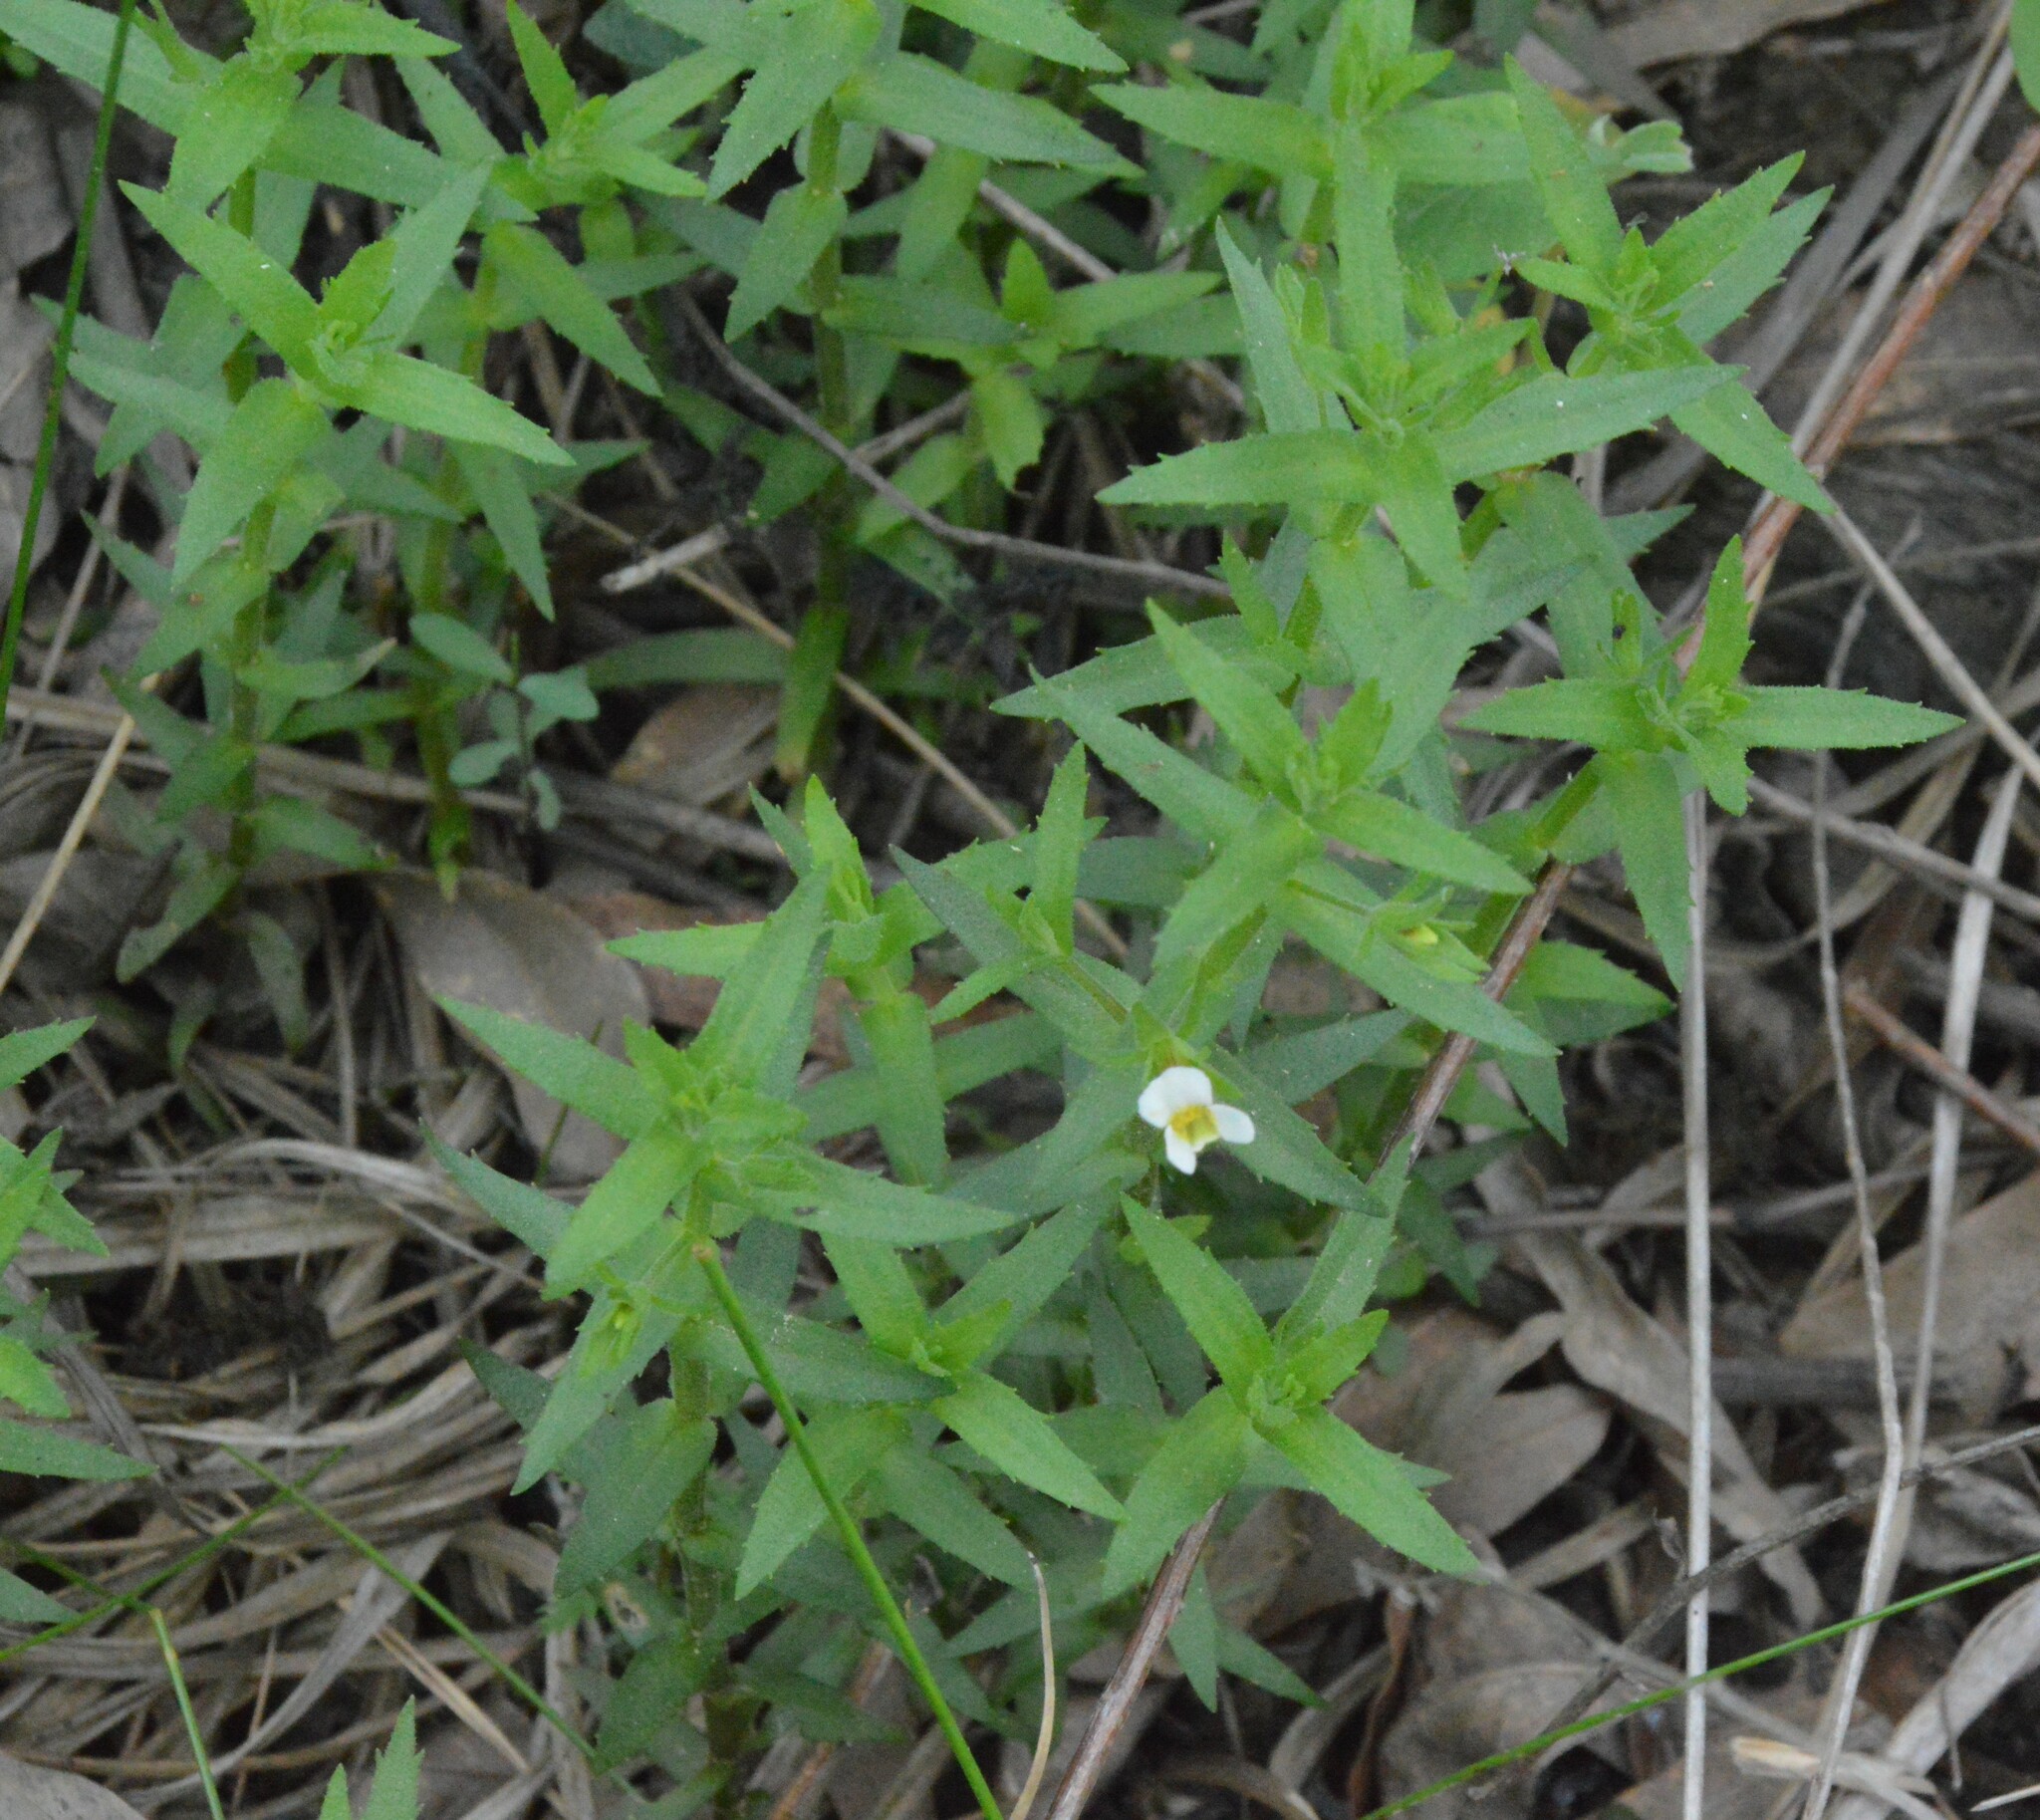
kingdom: Plantae
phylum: Tracheophyta
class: Magnoliopsida
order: Lamiales
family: Plantaginaceae
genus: Gratiola
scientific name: Gratiola brevifolia
